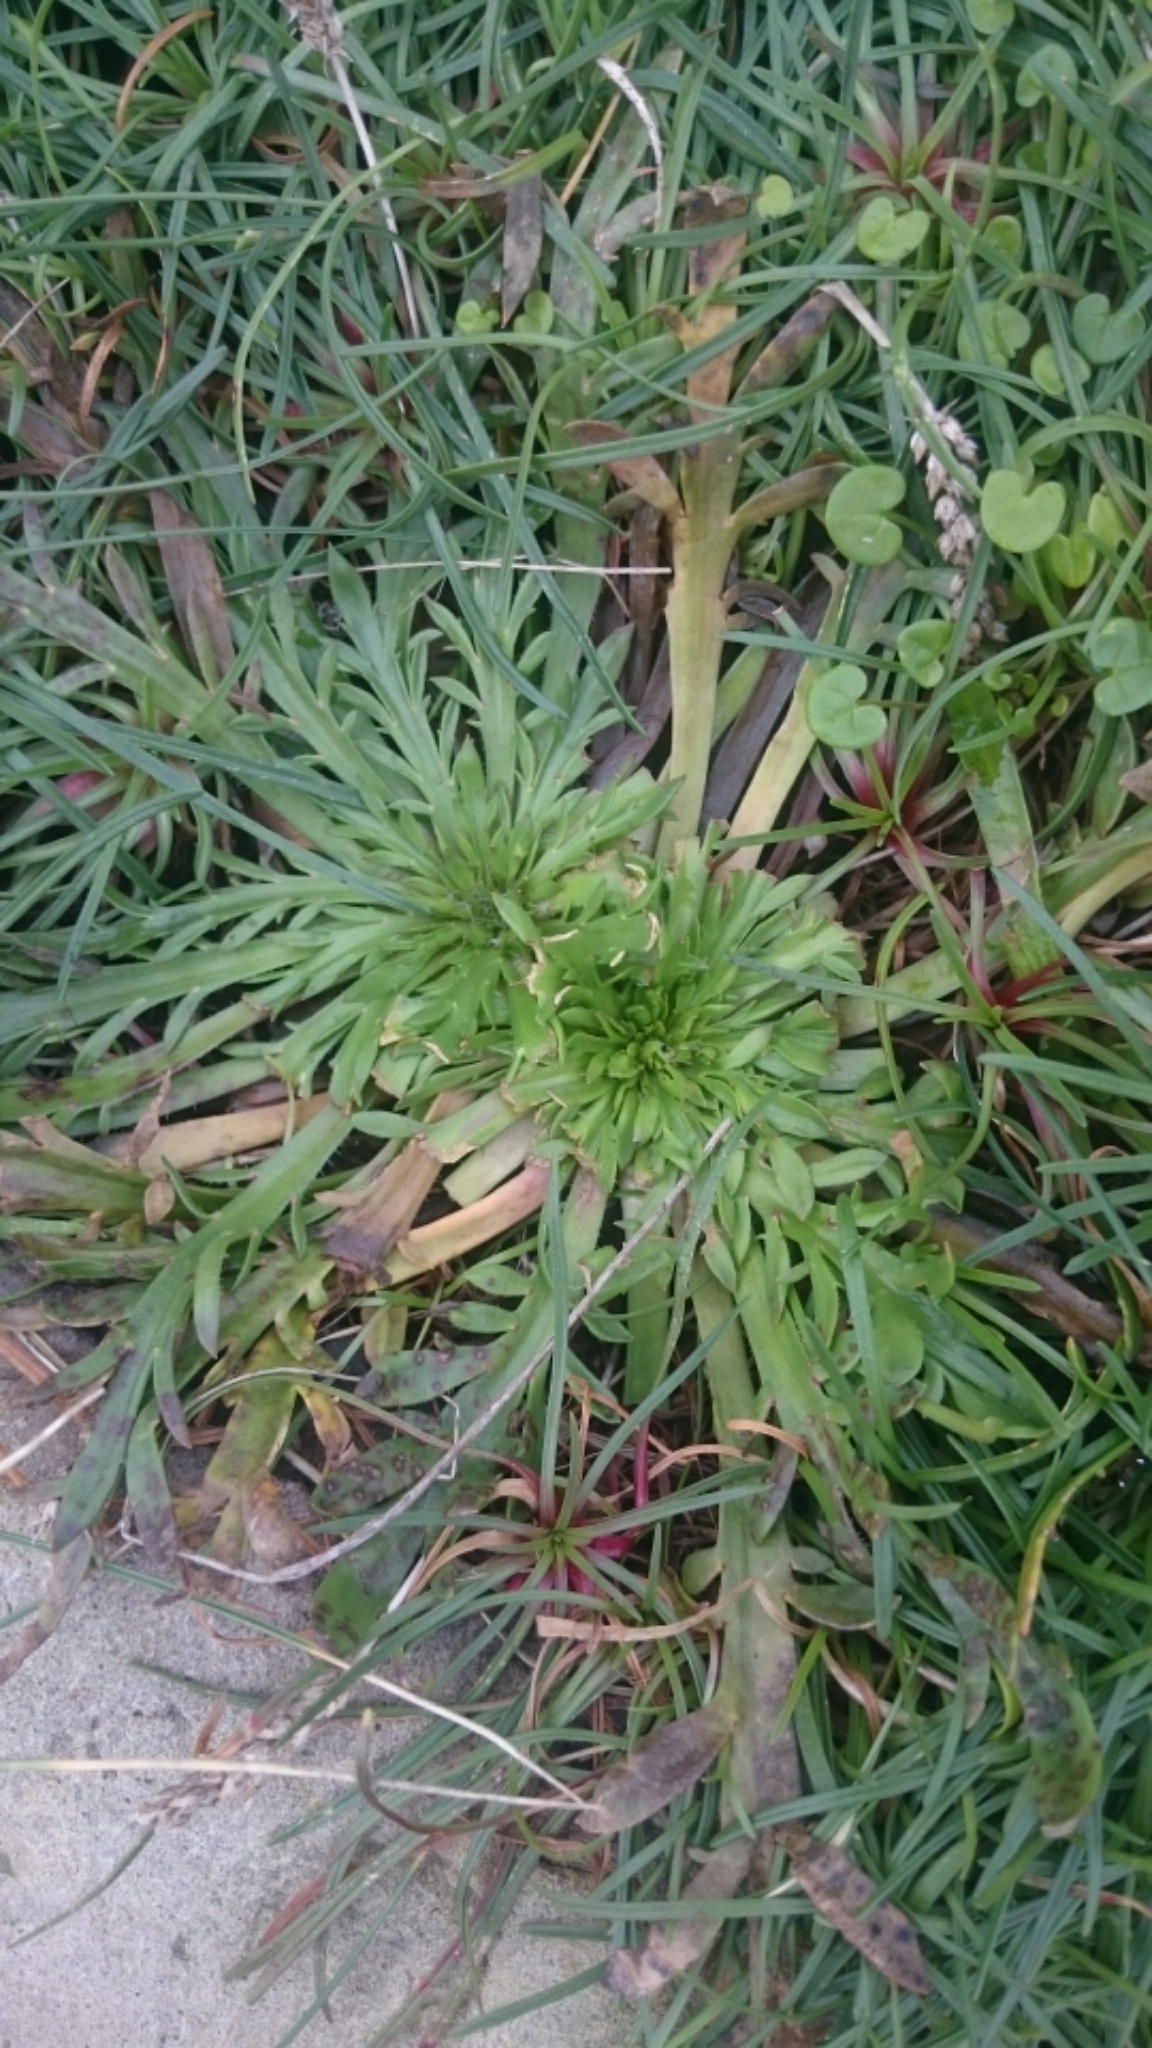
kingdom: Plantae
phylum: Tracheophyta
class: Magnoliopsida
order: Lamiales
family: Plantaginaceae
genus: Plantago
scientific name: Plantago coronopus
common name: Buck's-horn plantain
